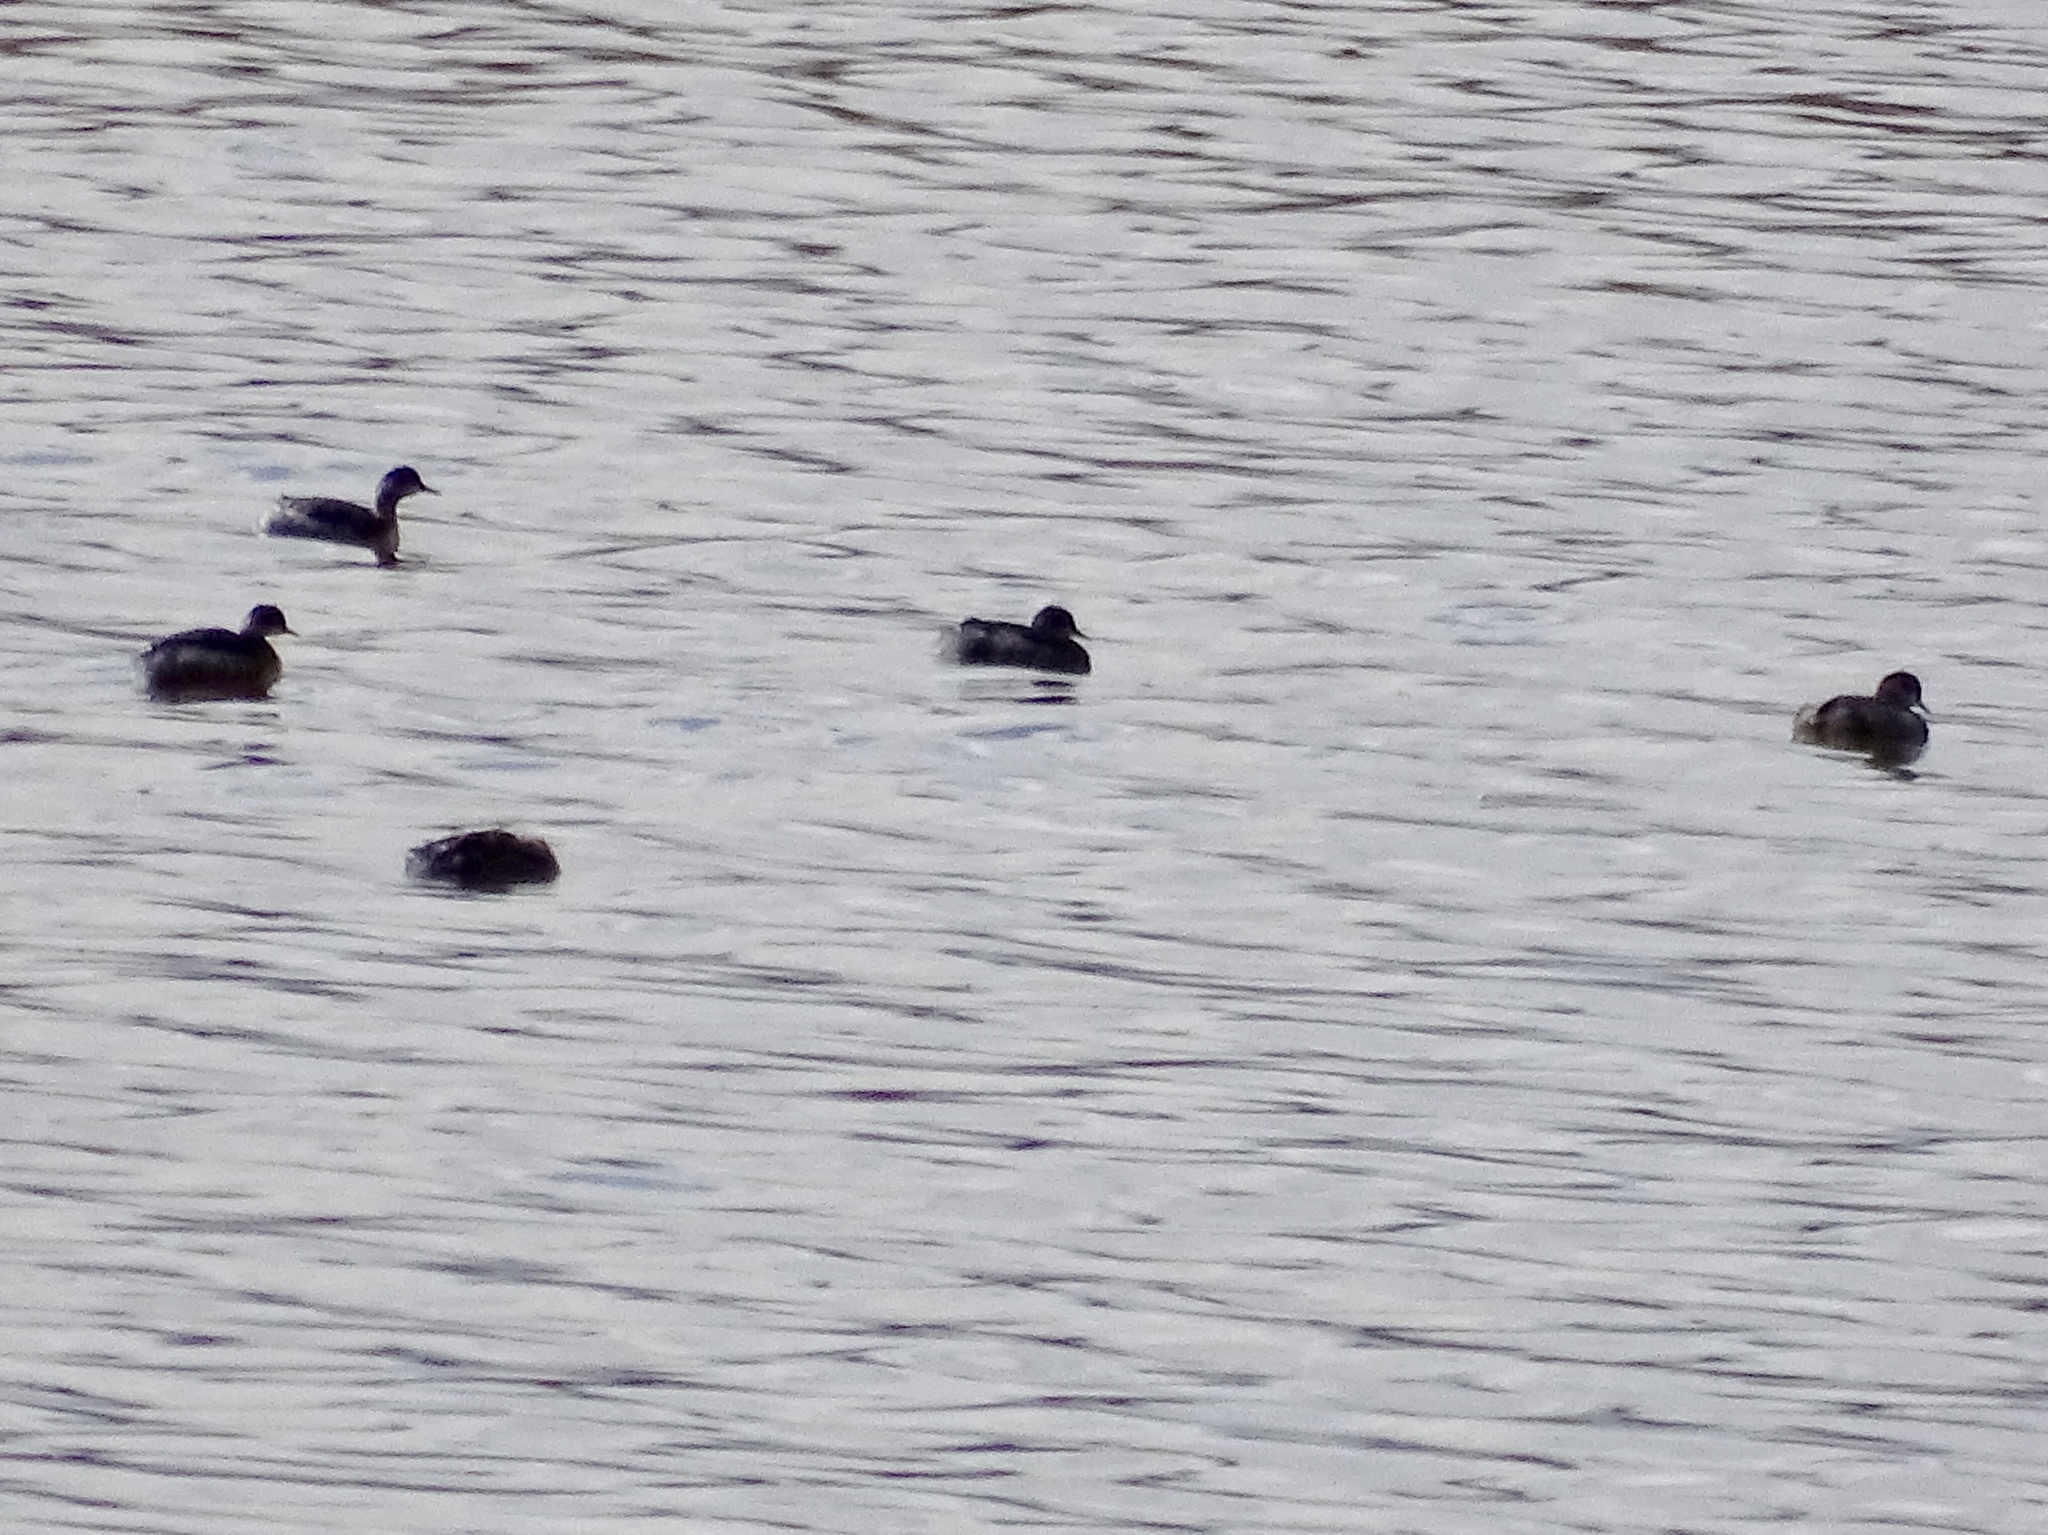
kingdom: Animalia
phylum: Chordata
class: Aves
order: Podicipediformes
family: Podicipedidae
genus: Podiceps
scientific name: Podiceps nigricollis
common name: Black-necked grebe
